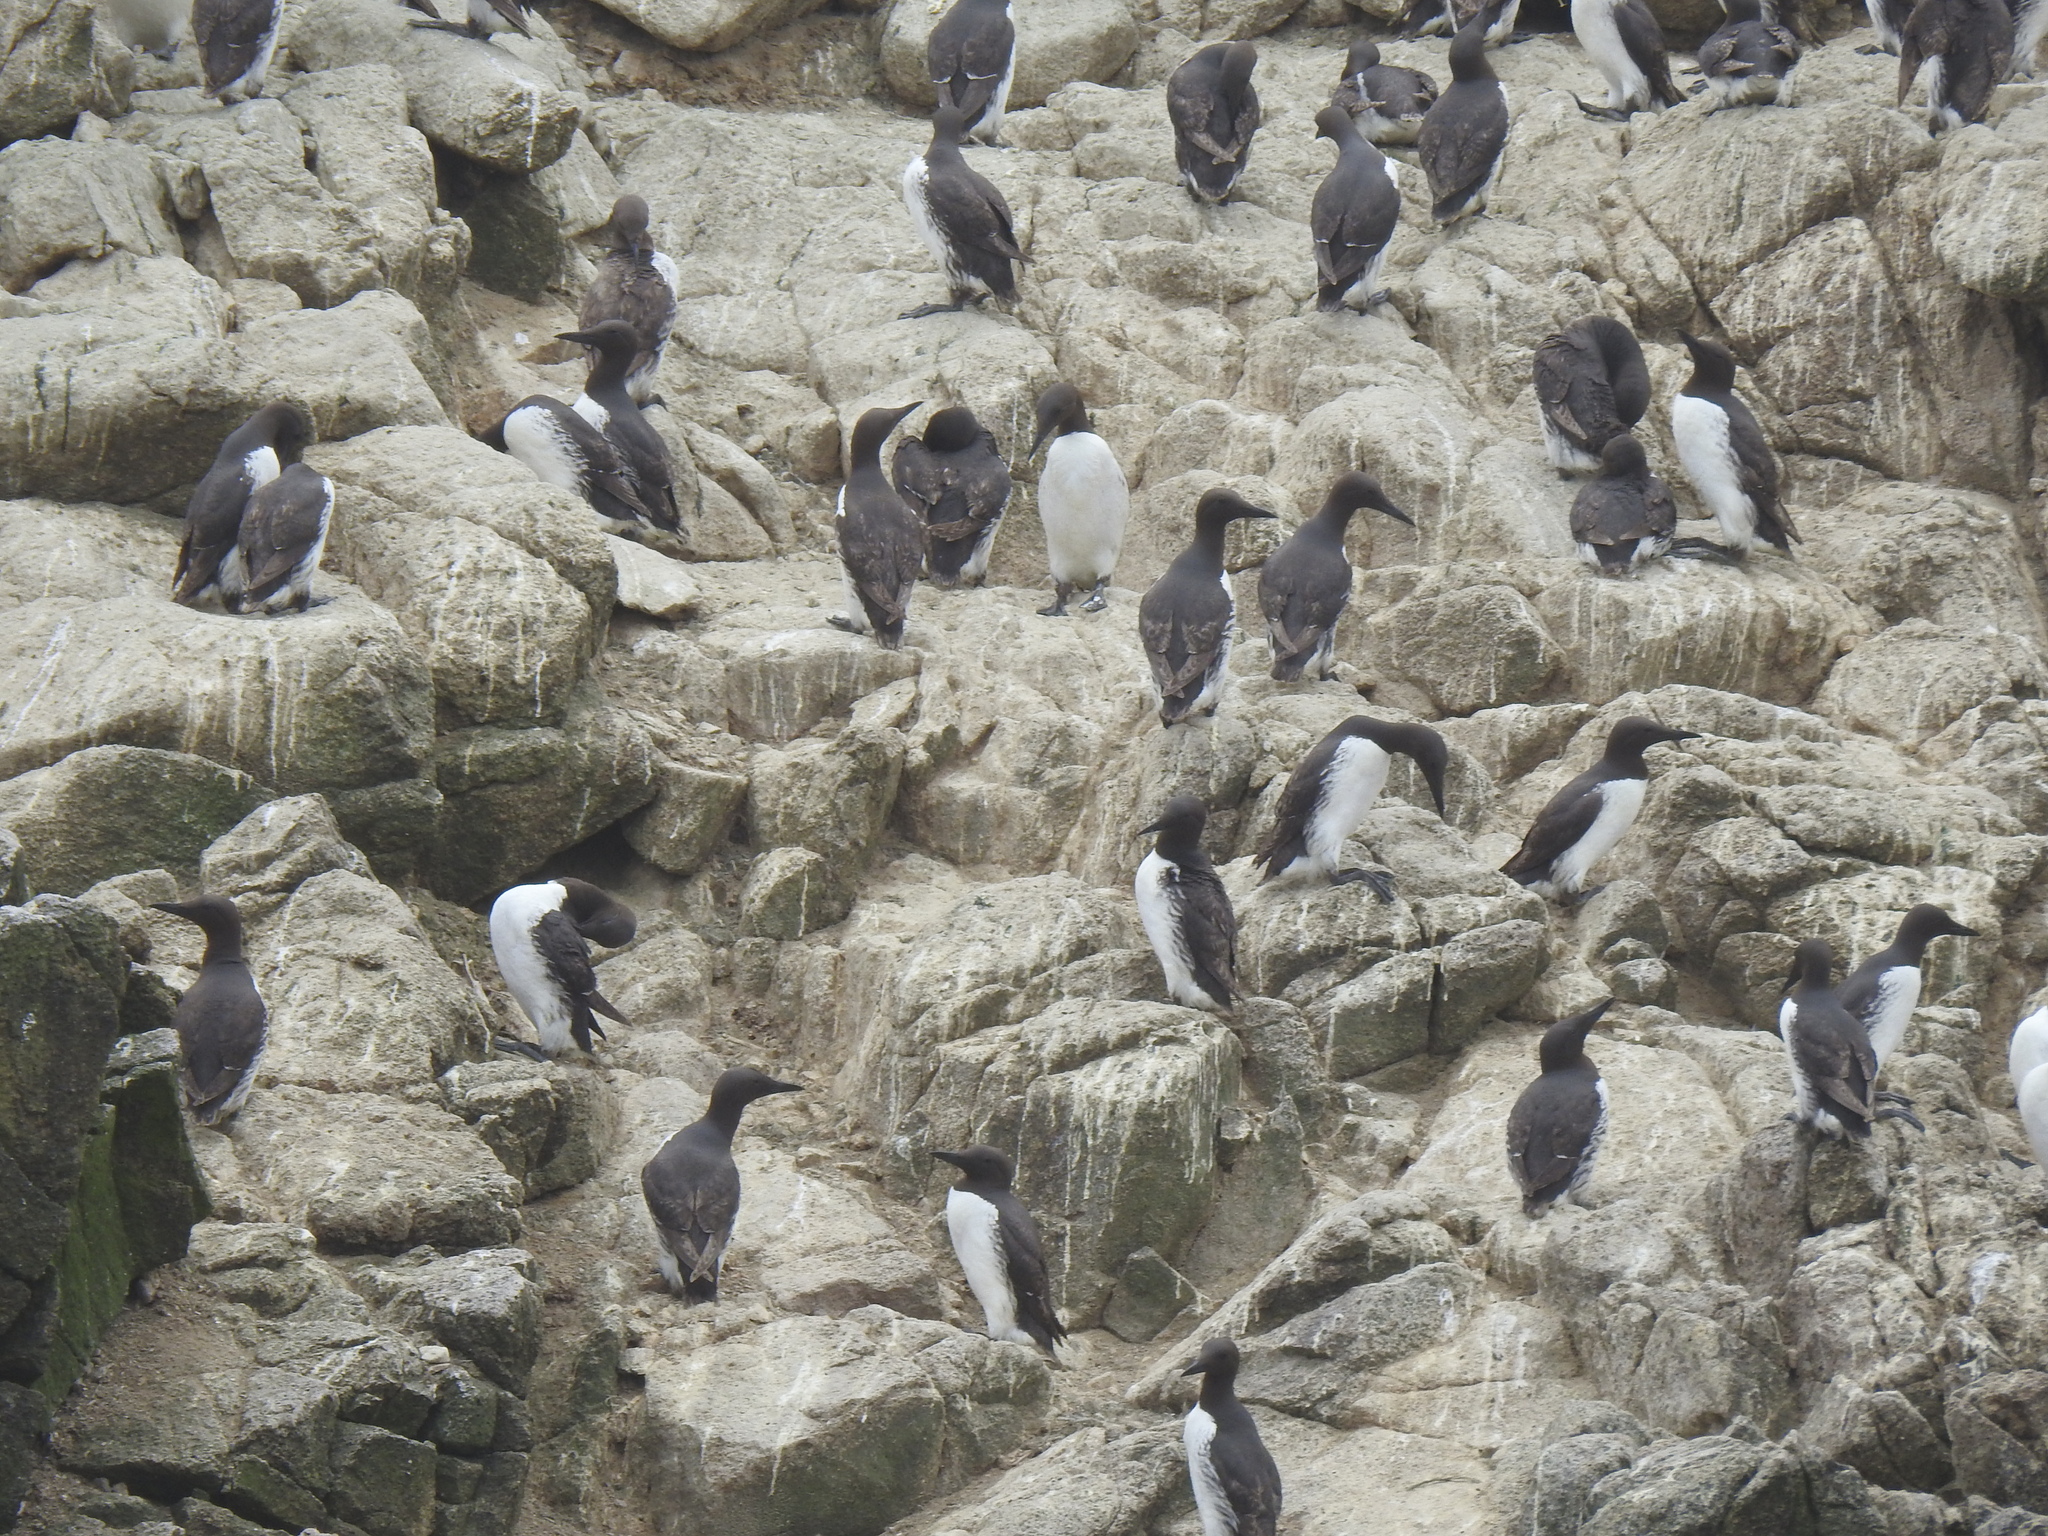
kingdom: Animalia
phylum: Chordata
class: Aves
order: Charadriiformes
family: Alcidae
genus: Uria
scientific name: Uria aalge
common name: Common murre
